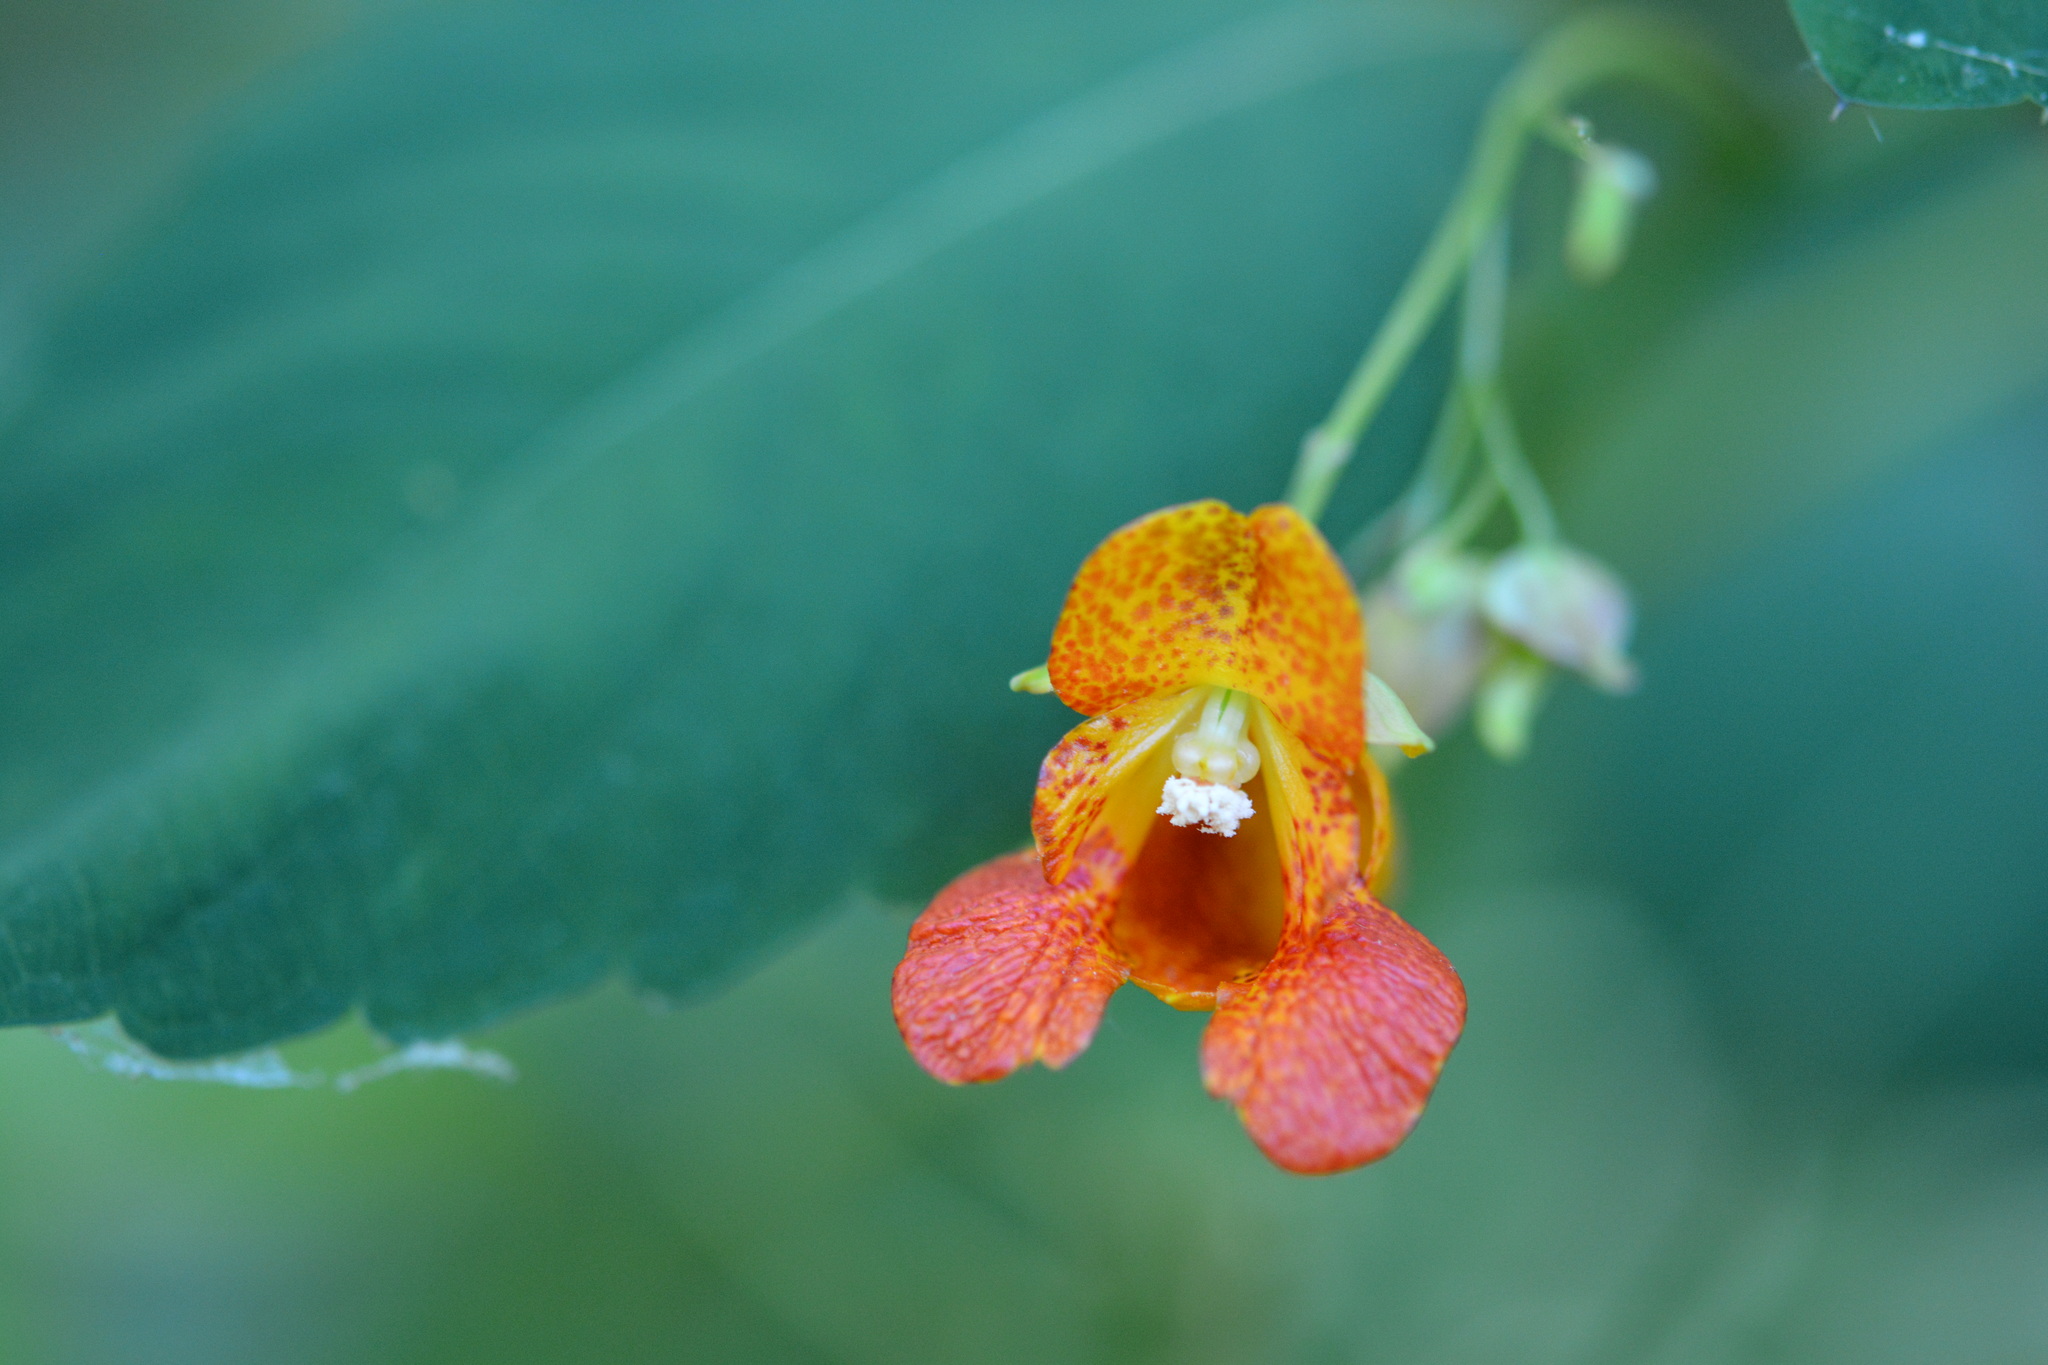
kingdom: Plantae
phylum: Tracheophyta
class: Magnoliopsida
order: Ericales
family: Balsaminaceae
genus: Impatiens
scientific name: Impatiens capensis
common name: Orange balsam
